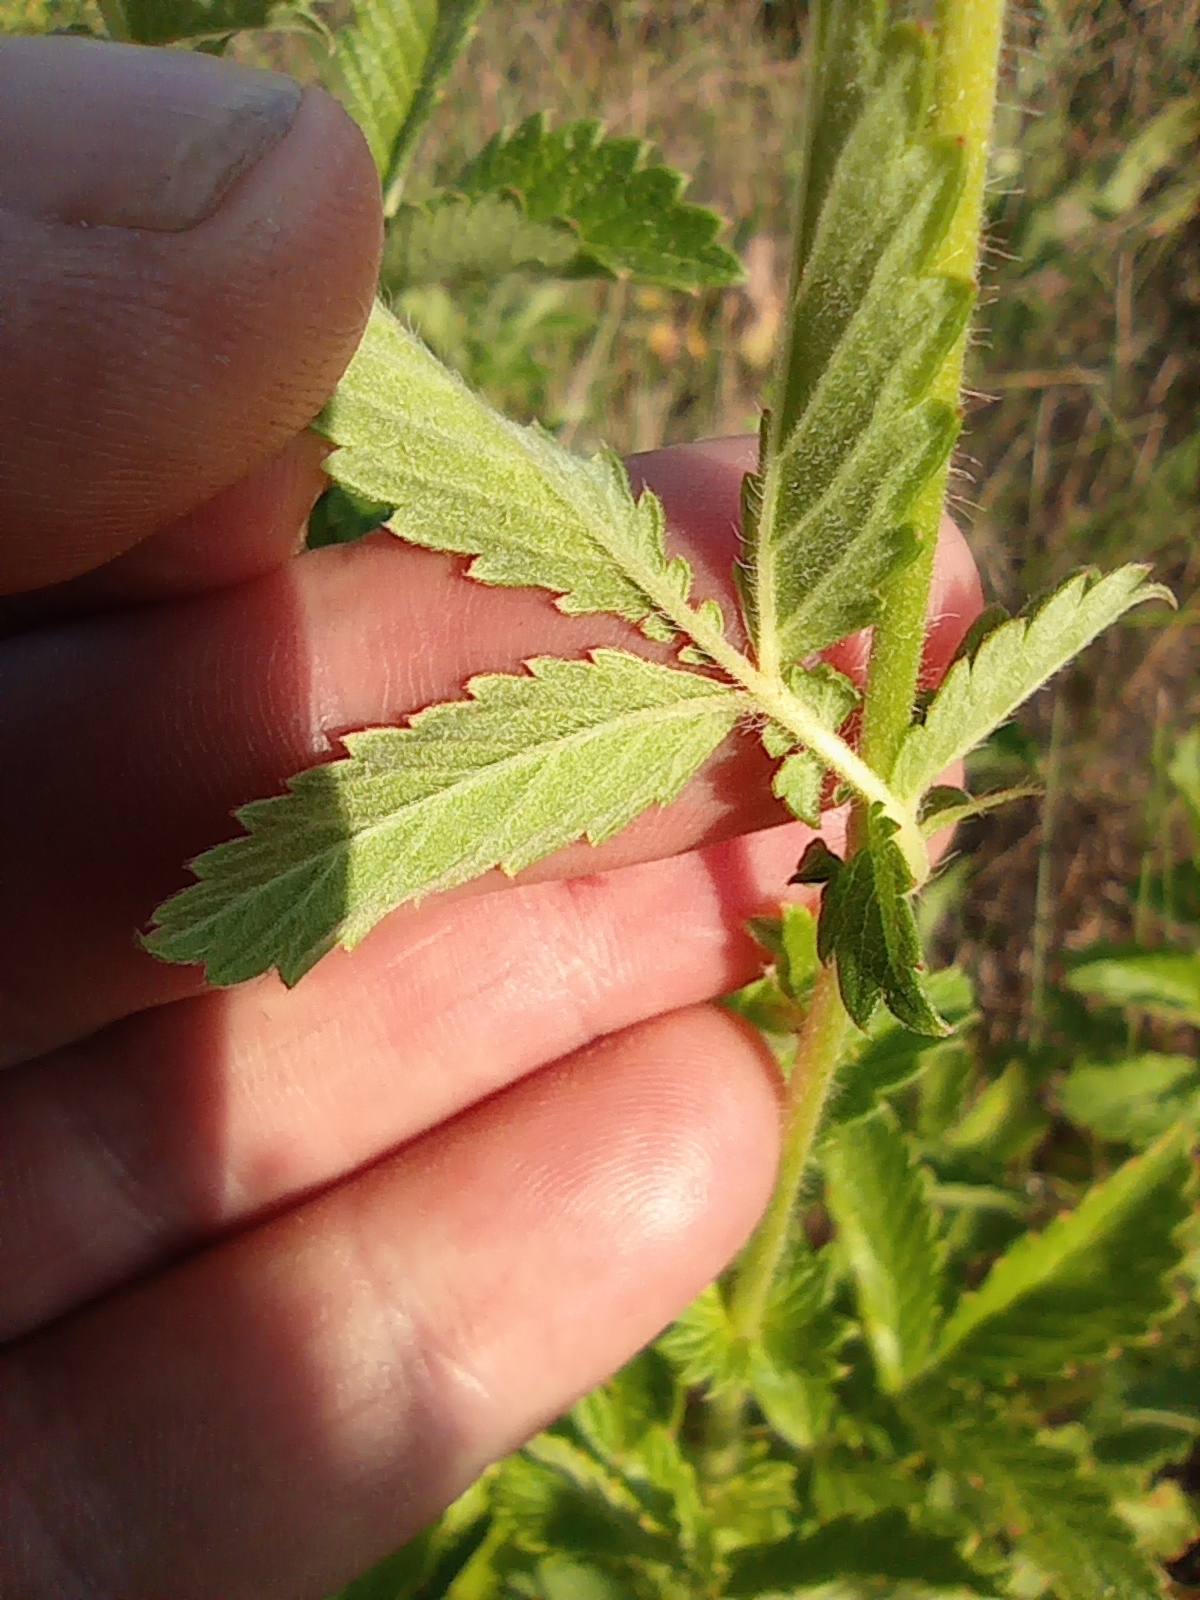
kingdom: Plantae
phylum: Tracheophyta
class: Magnoliopsida
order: Rosales
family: Rosaceae
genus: Agrimonia
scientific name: Agrimonia eupatoria
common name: Agrimony
